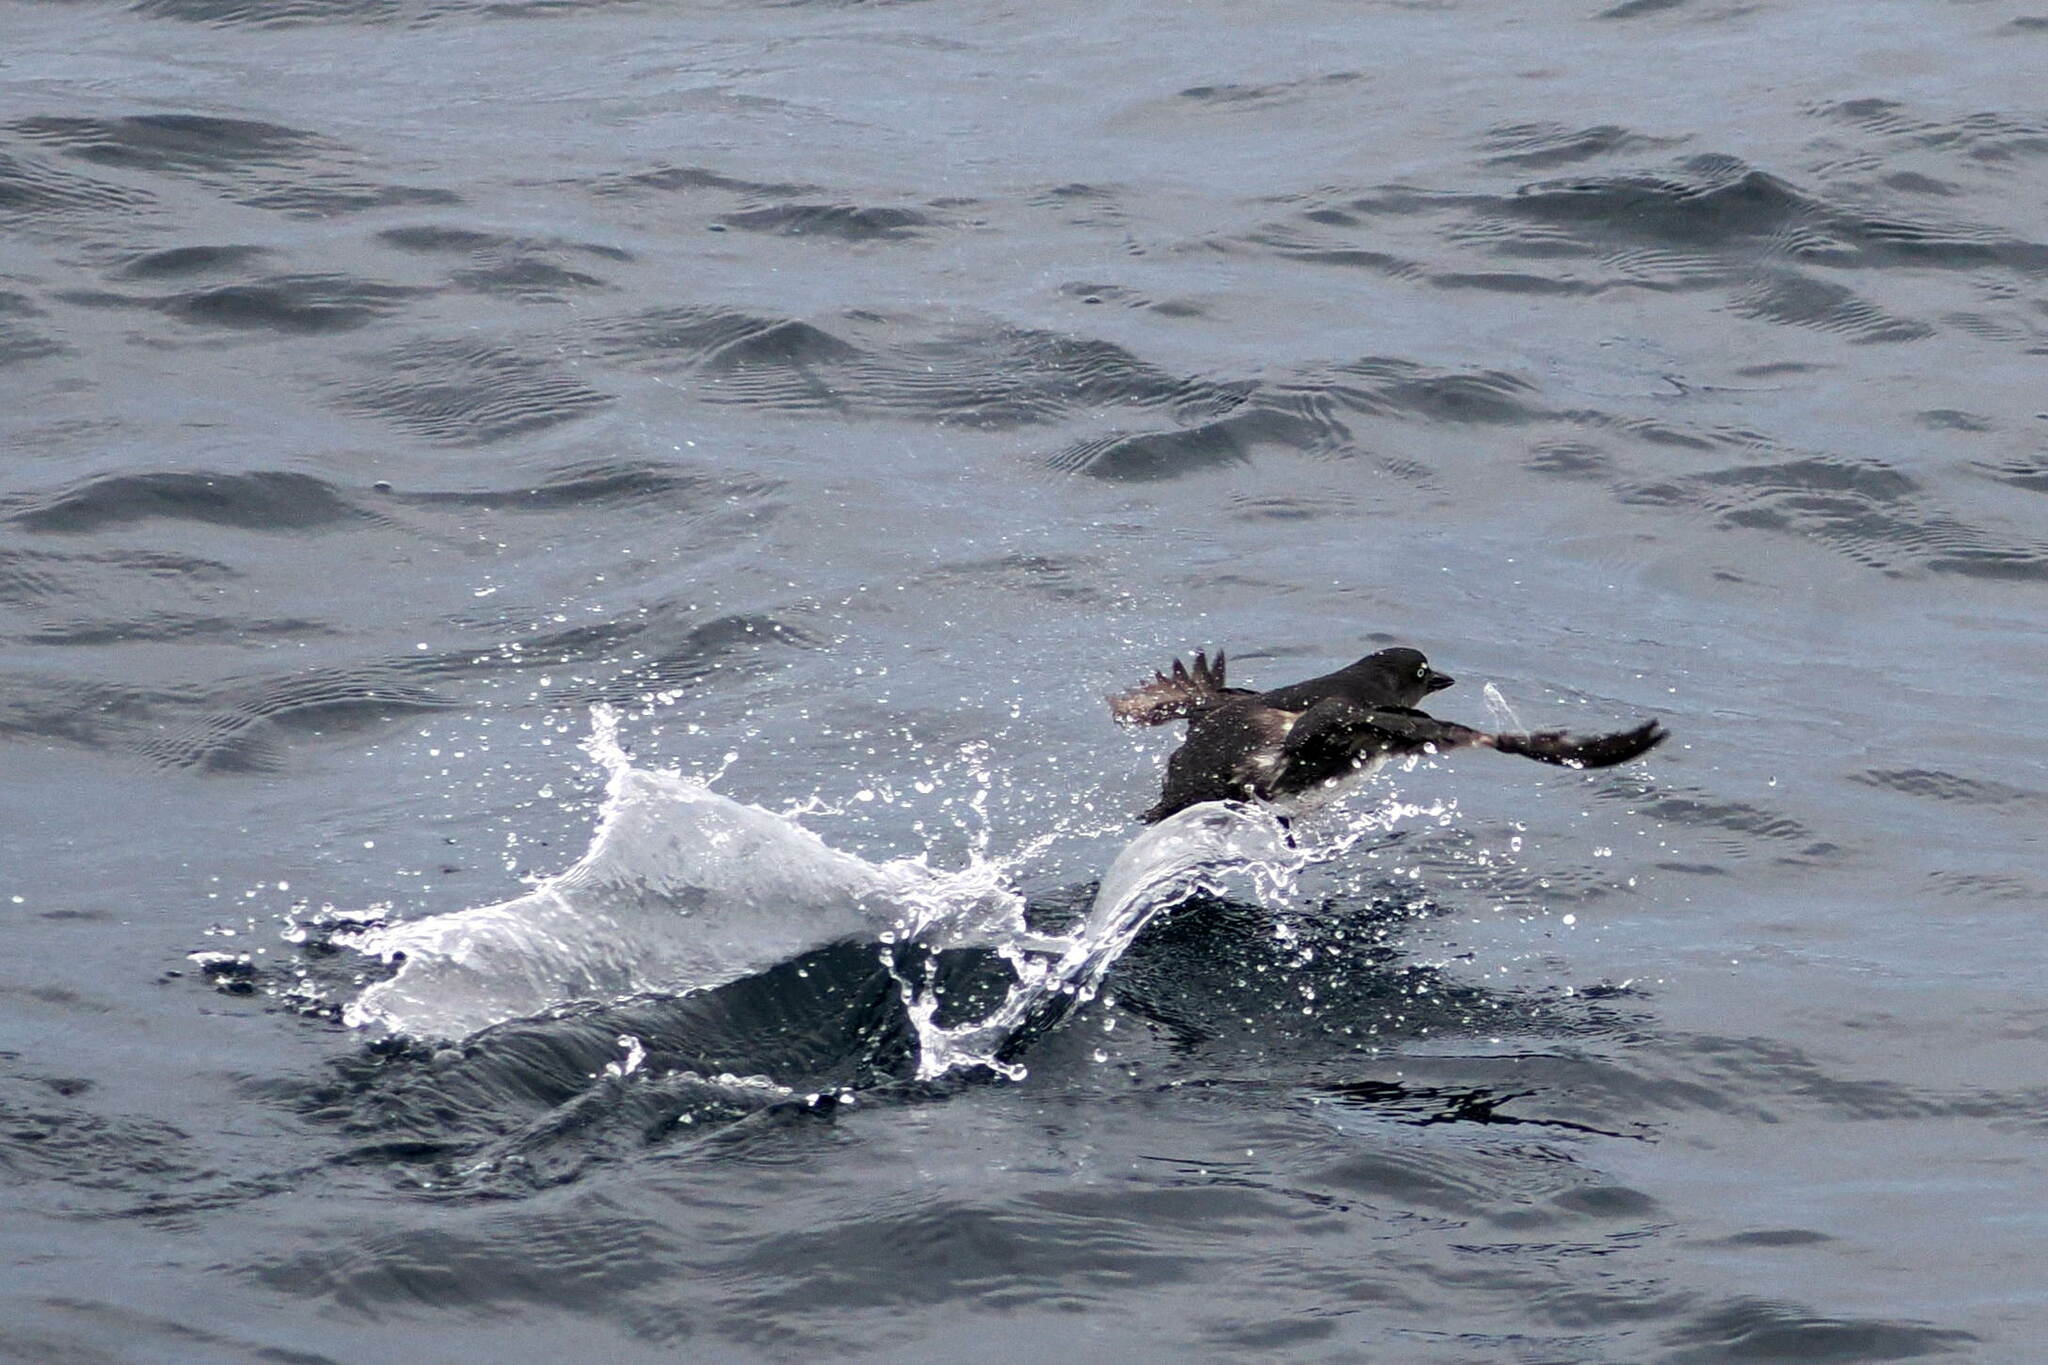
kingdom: Animalia
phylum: Chordata
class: Aves
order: Charadriiformes
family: Alcidae
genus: Ptychoramphus
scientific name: Ptychoramphus aleuticus
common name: Cassin's auklet
